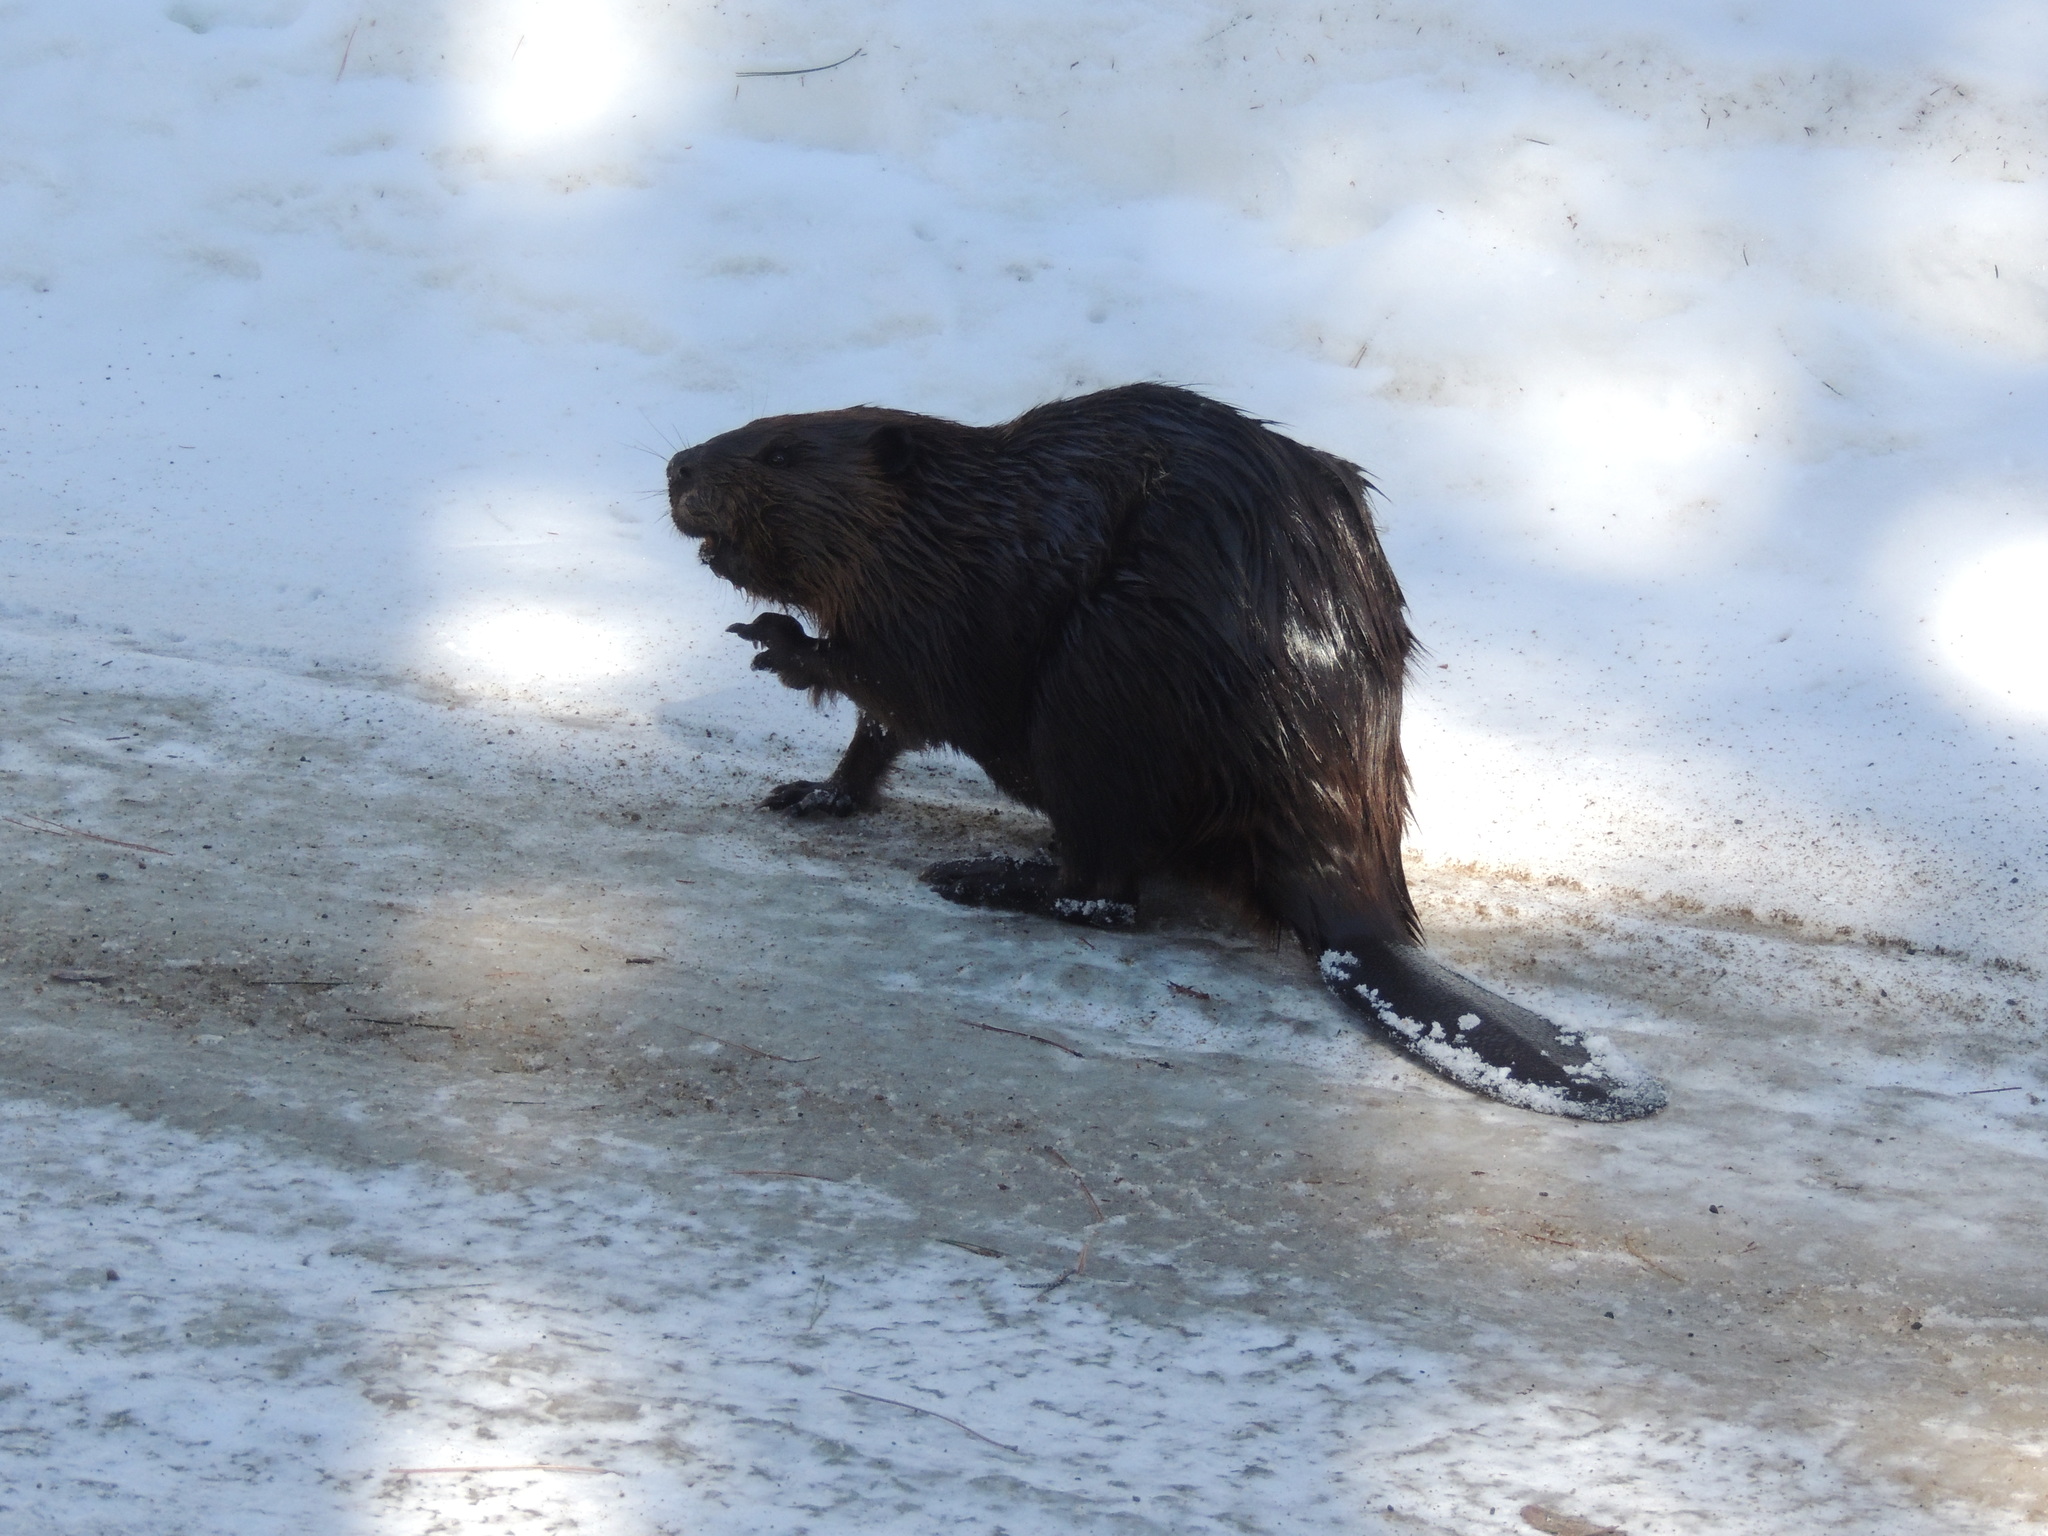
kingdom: Animalia
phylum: Chordata
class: Mammalia
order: Rodentia
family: Castoridae
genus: Castor
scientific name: Castor canadensis
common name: American beaver
